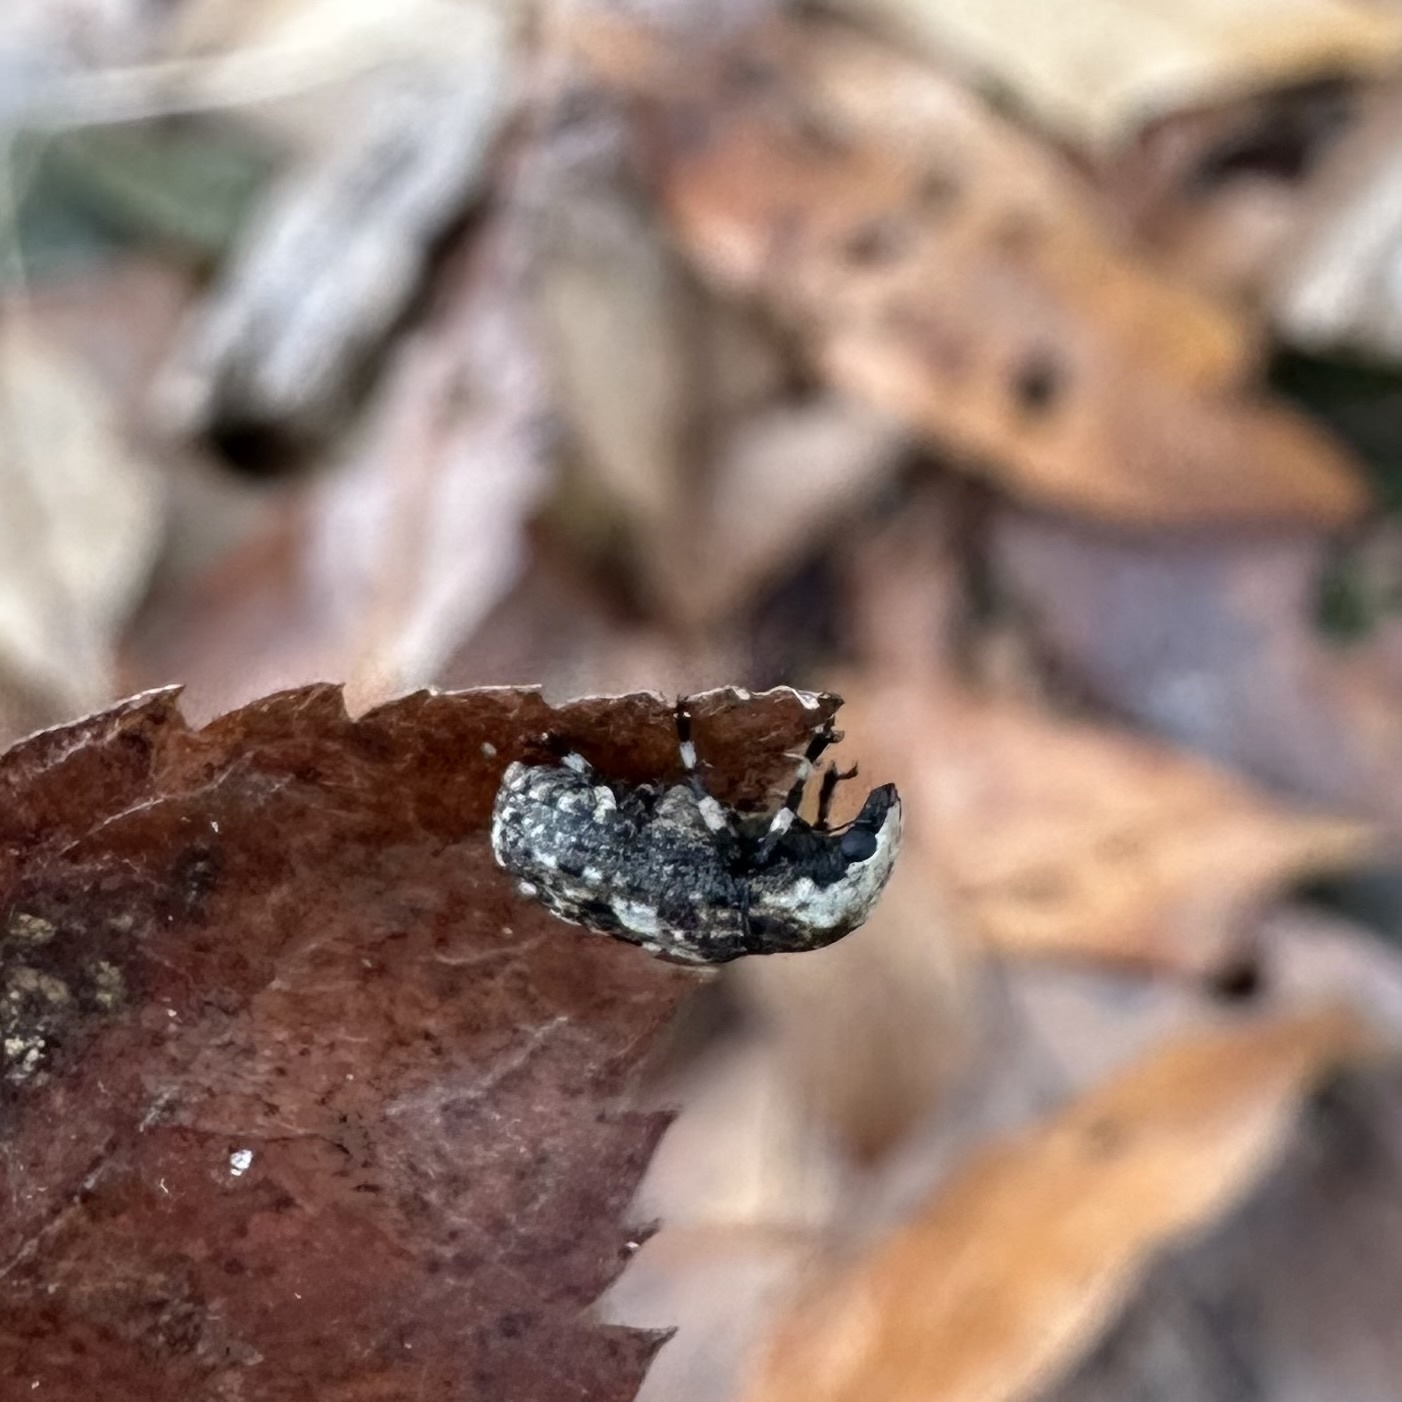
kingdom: Animalia
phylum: Arthropoda
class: Insecta
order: Coleoptera
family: Anthribidae
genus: Euparius
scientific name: Euparius marmoreus
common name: Marbled fungus weevil
